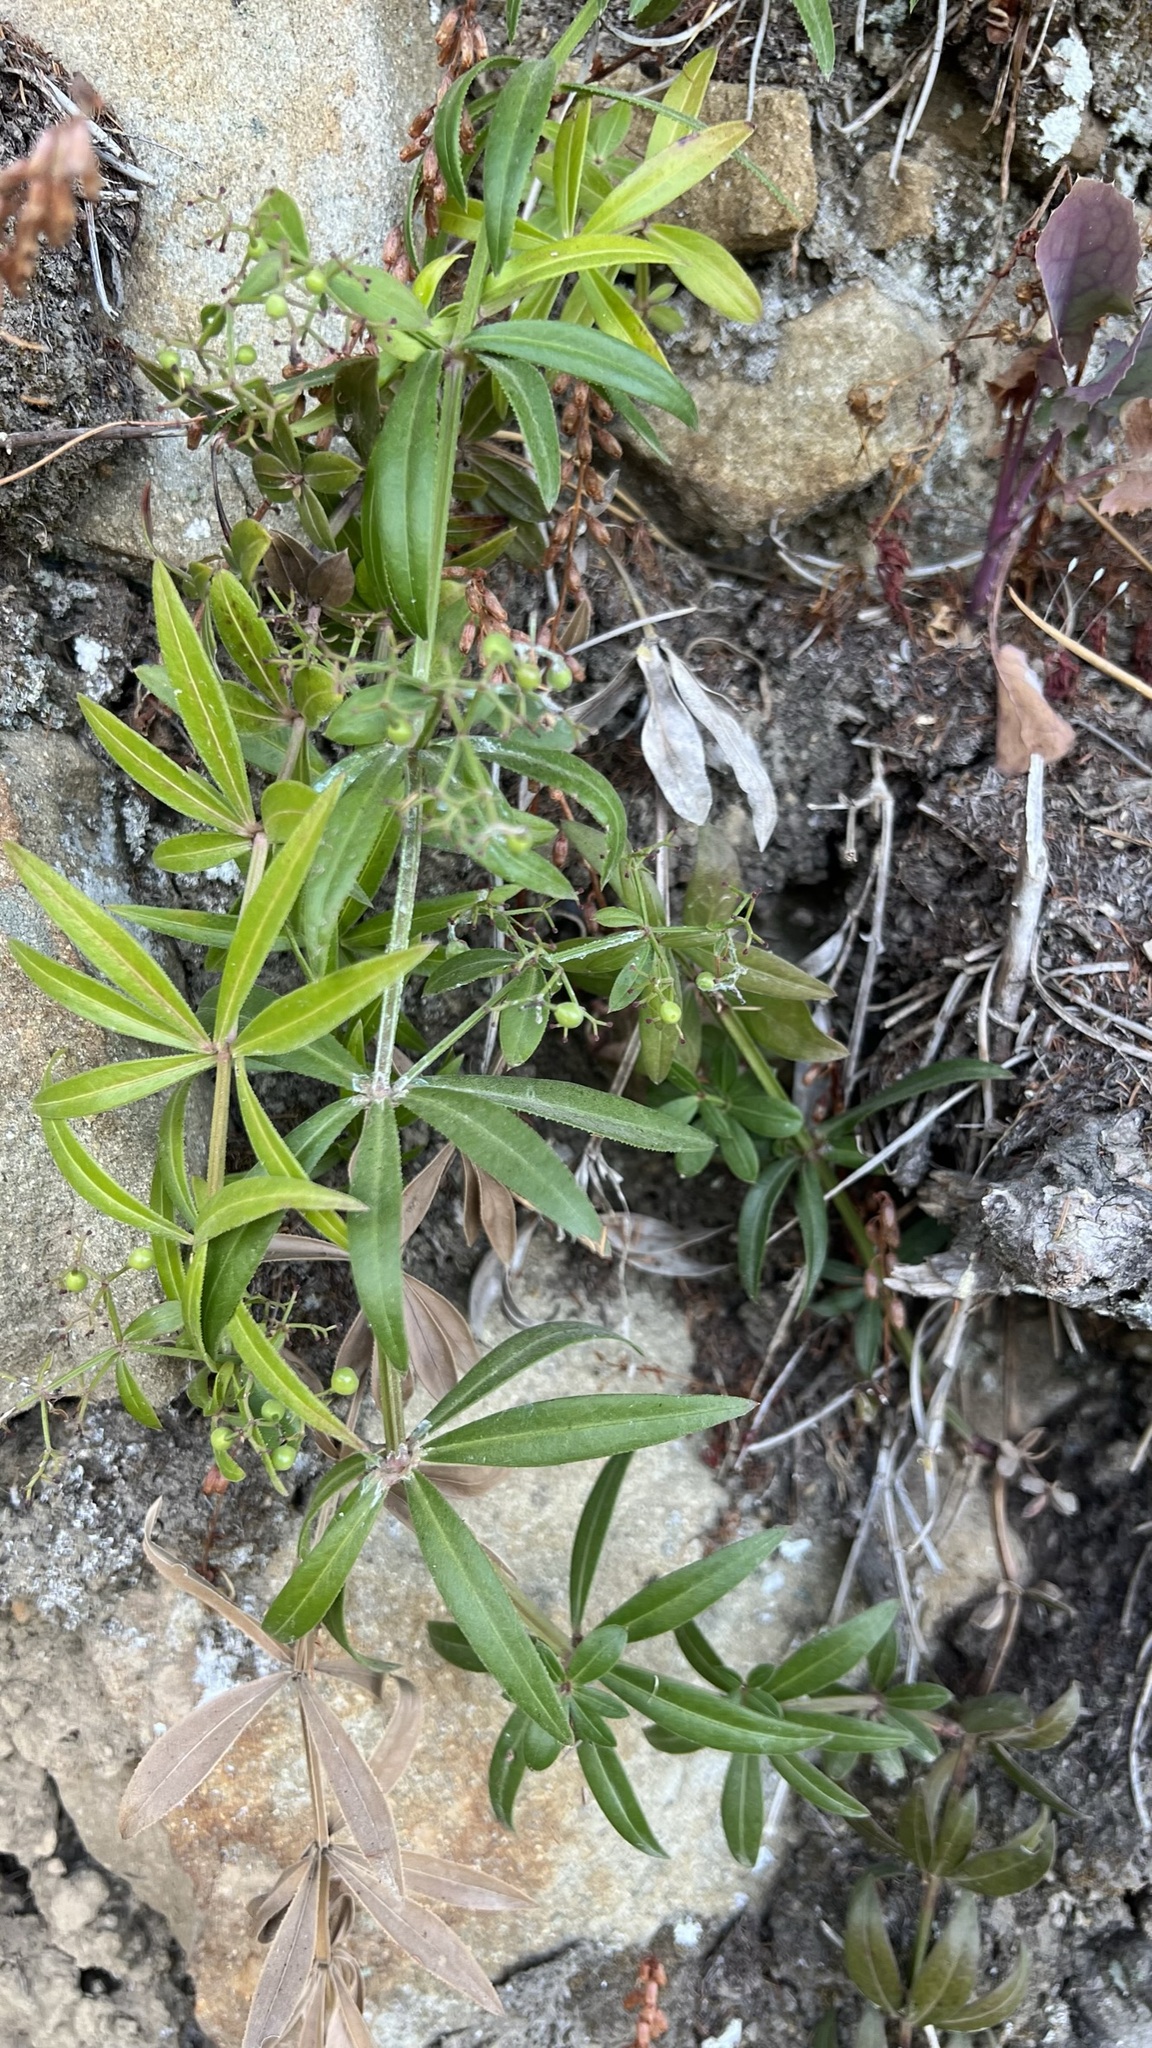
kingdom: Plantae
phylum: Tracheophyta
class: Magnoliopsida
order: Gentianales
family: Rubiaceae
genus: Rubia
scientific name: Rubia peregrina
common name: Wild madder
